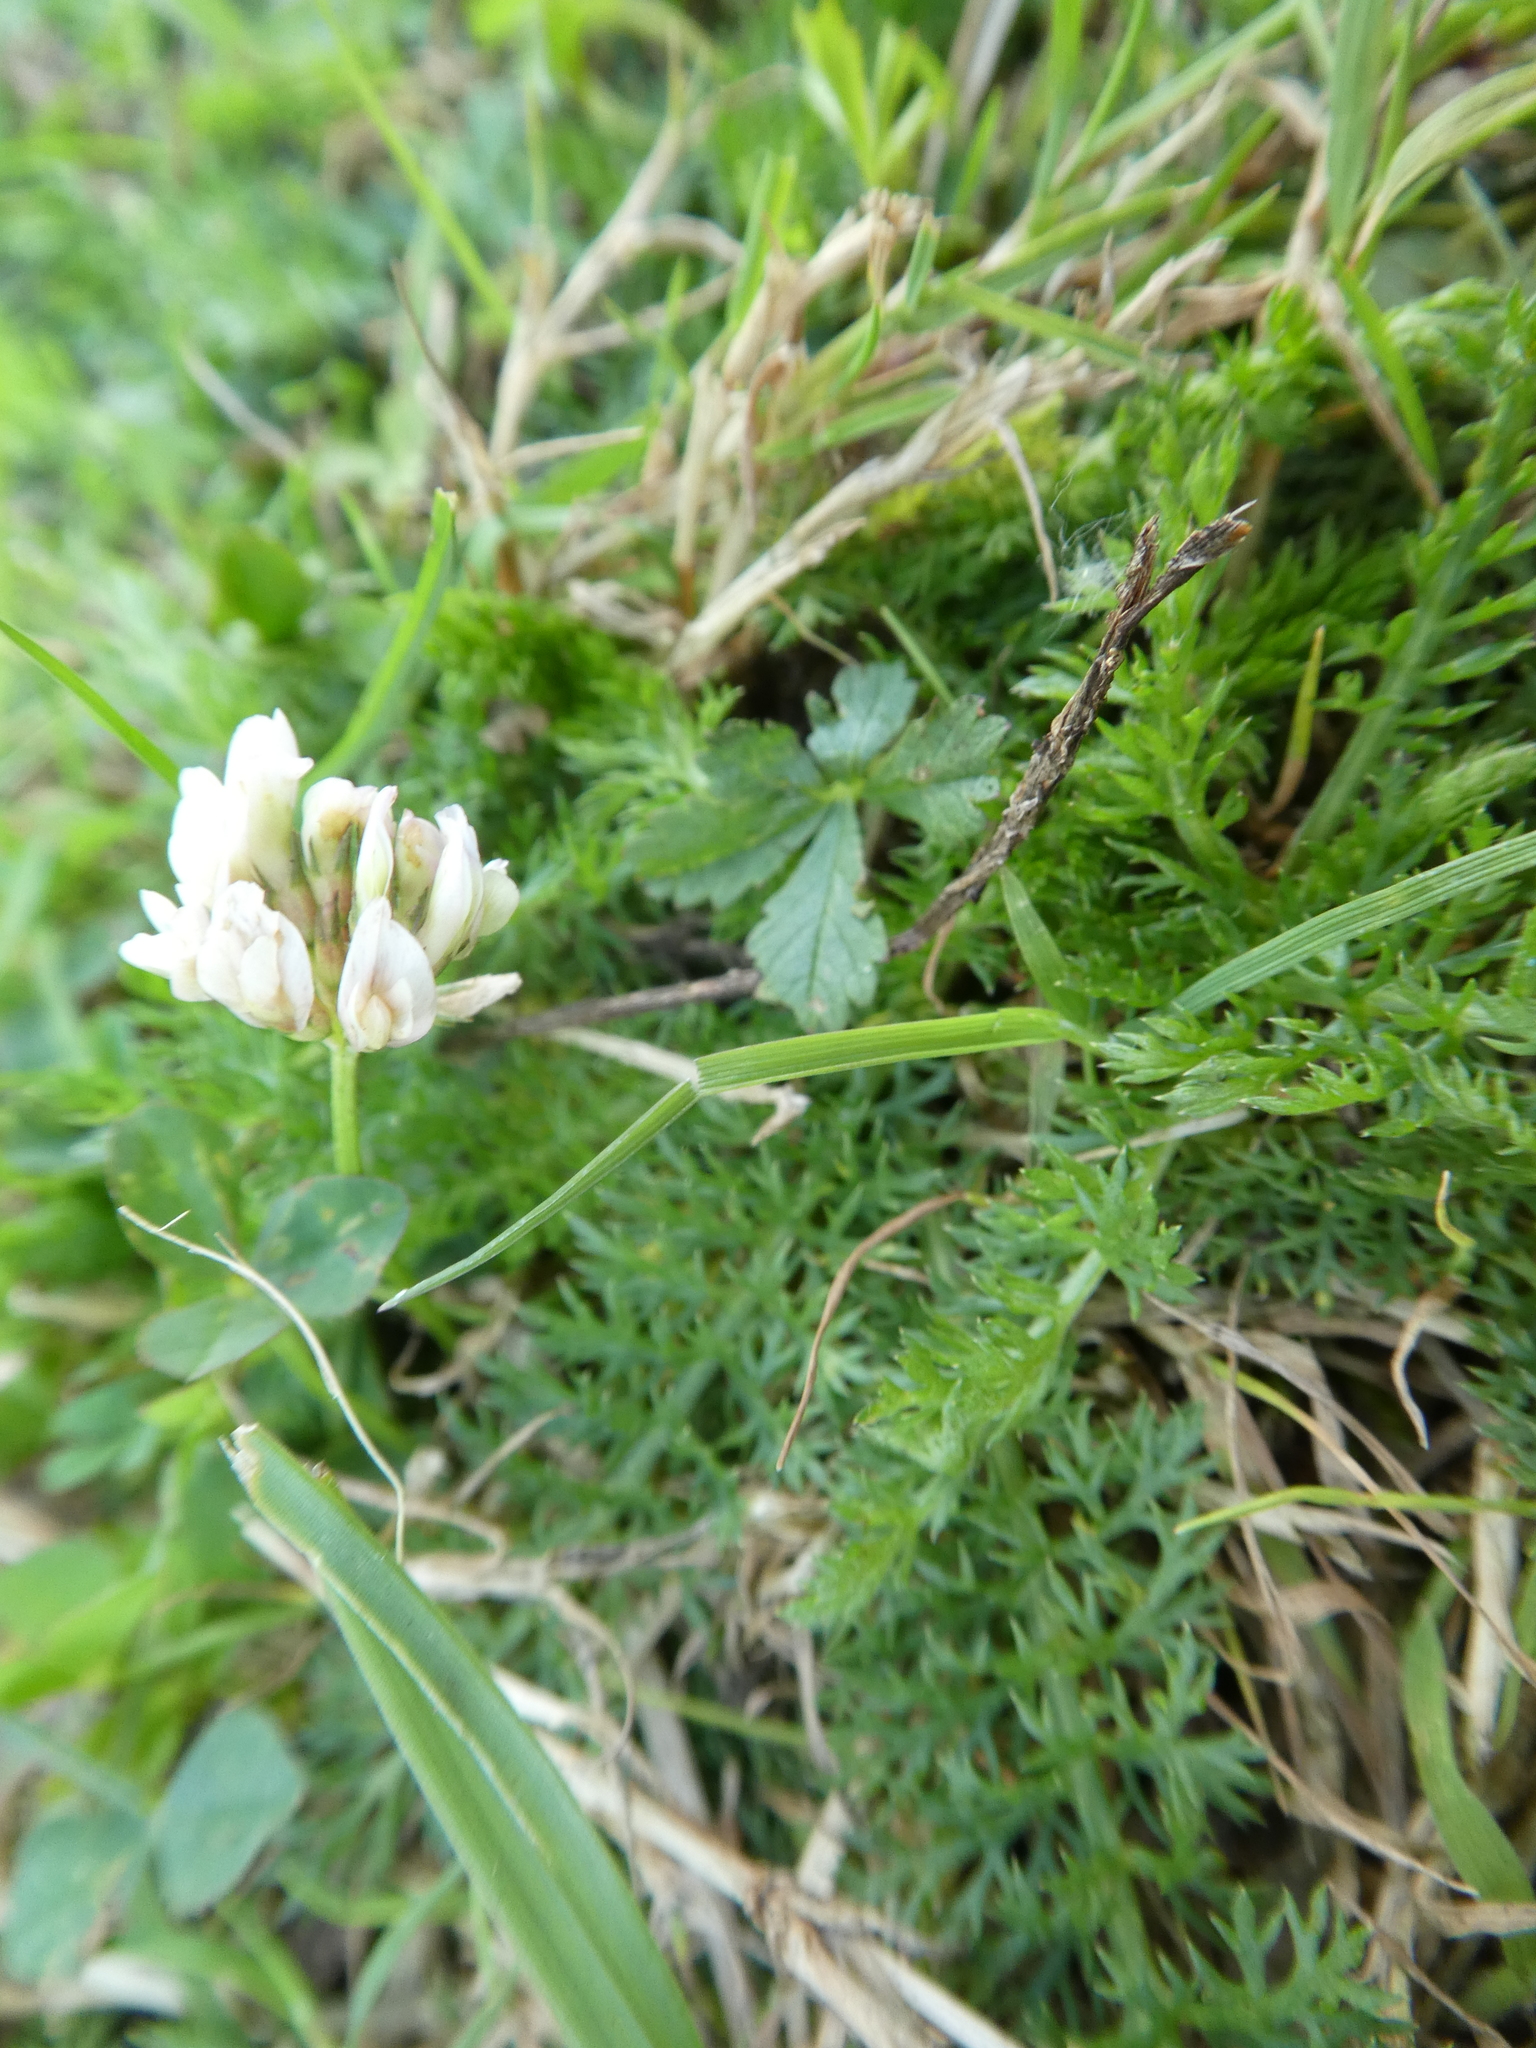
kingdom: Plantae
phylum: Tracheophyta
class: Magnoliopsida
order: Fabales
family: Fabaceae
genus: Trifolium
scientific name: Trifolium repens
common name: White clover
